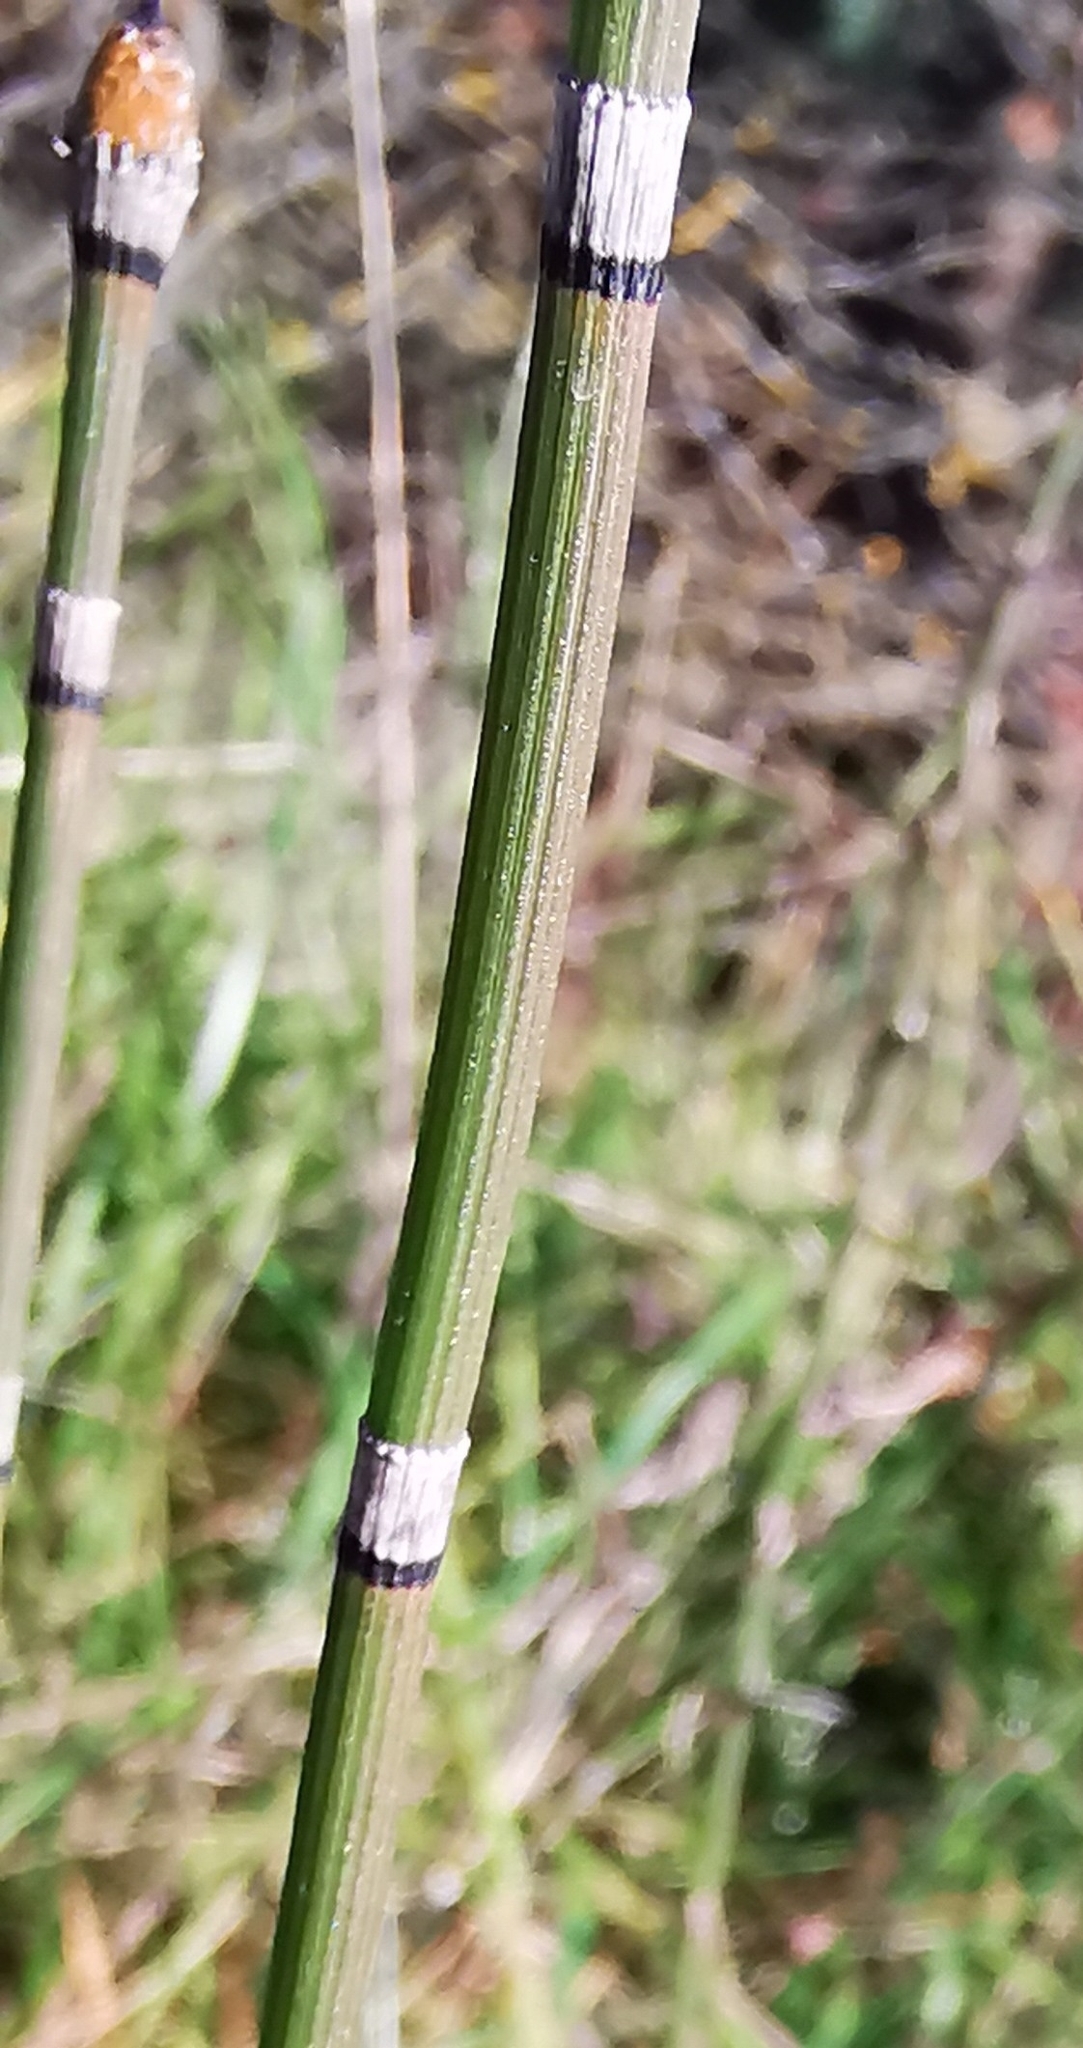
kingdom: Plantae
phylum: Tracheophyta
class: Polypodiopsida
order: Equisetales
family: Equisetaceae
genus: Equisetum
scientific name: Equisetum hyemale
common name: Rough horsetail
